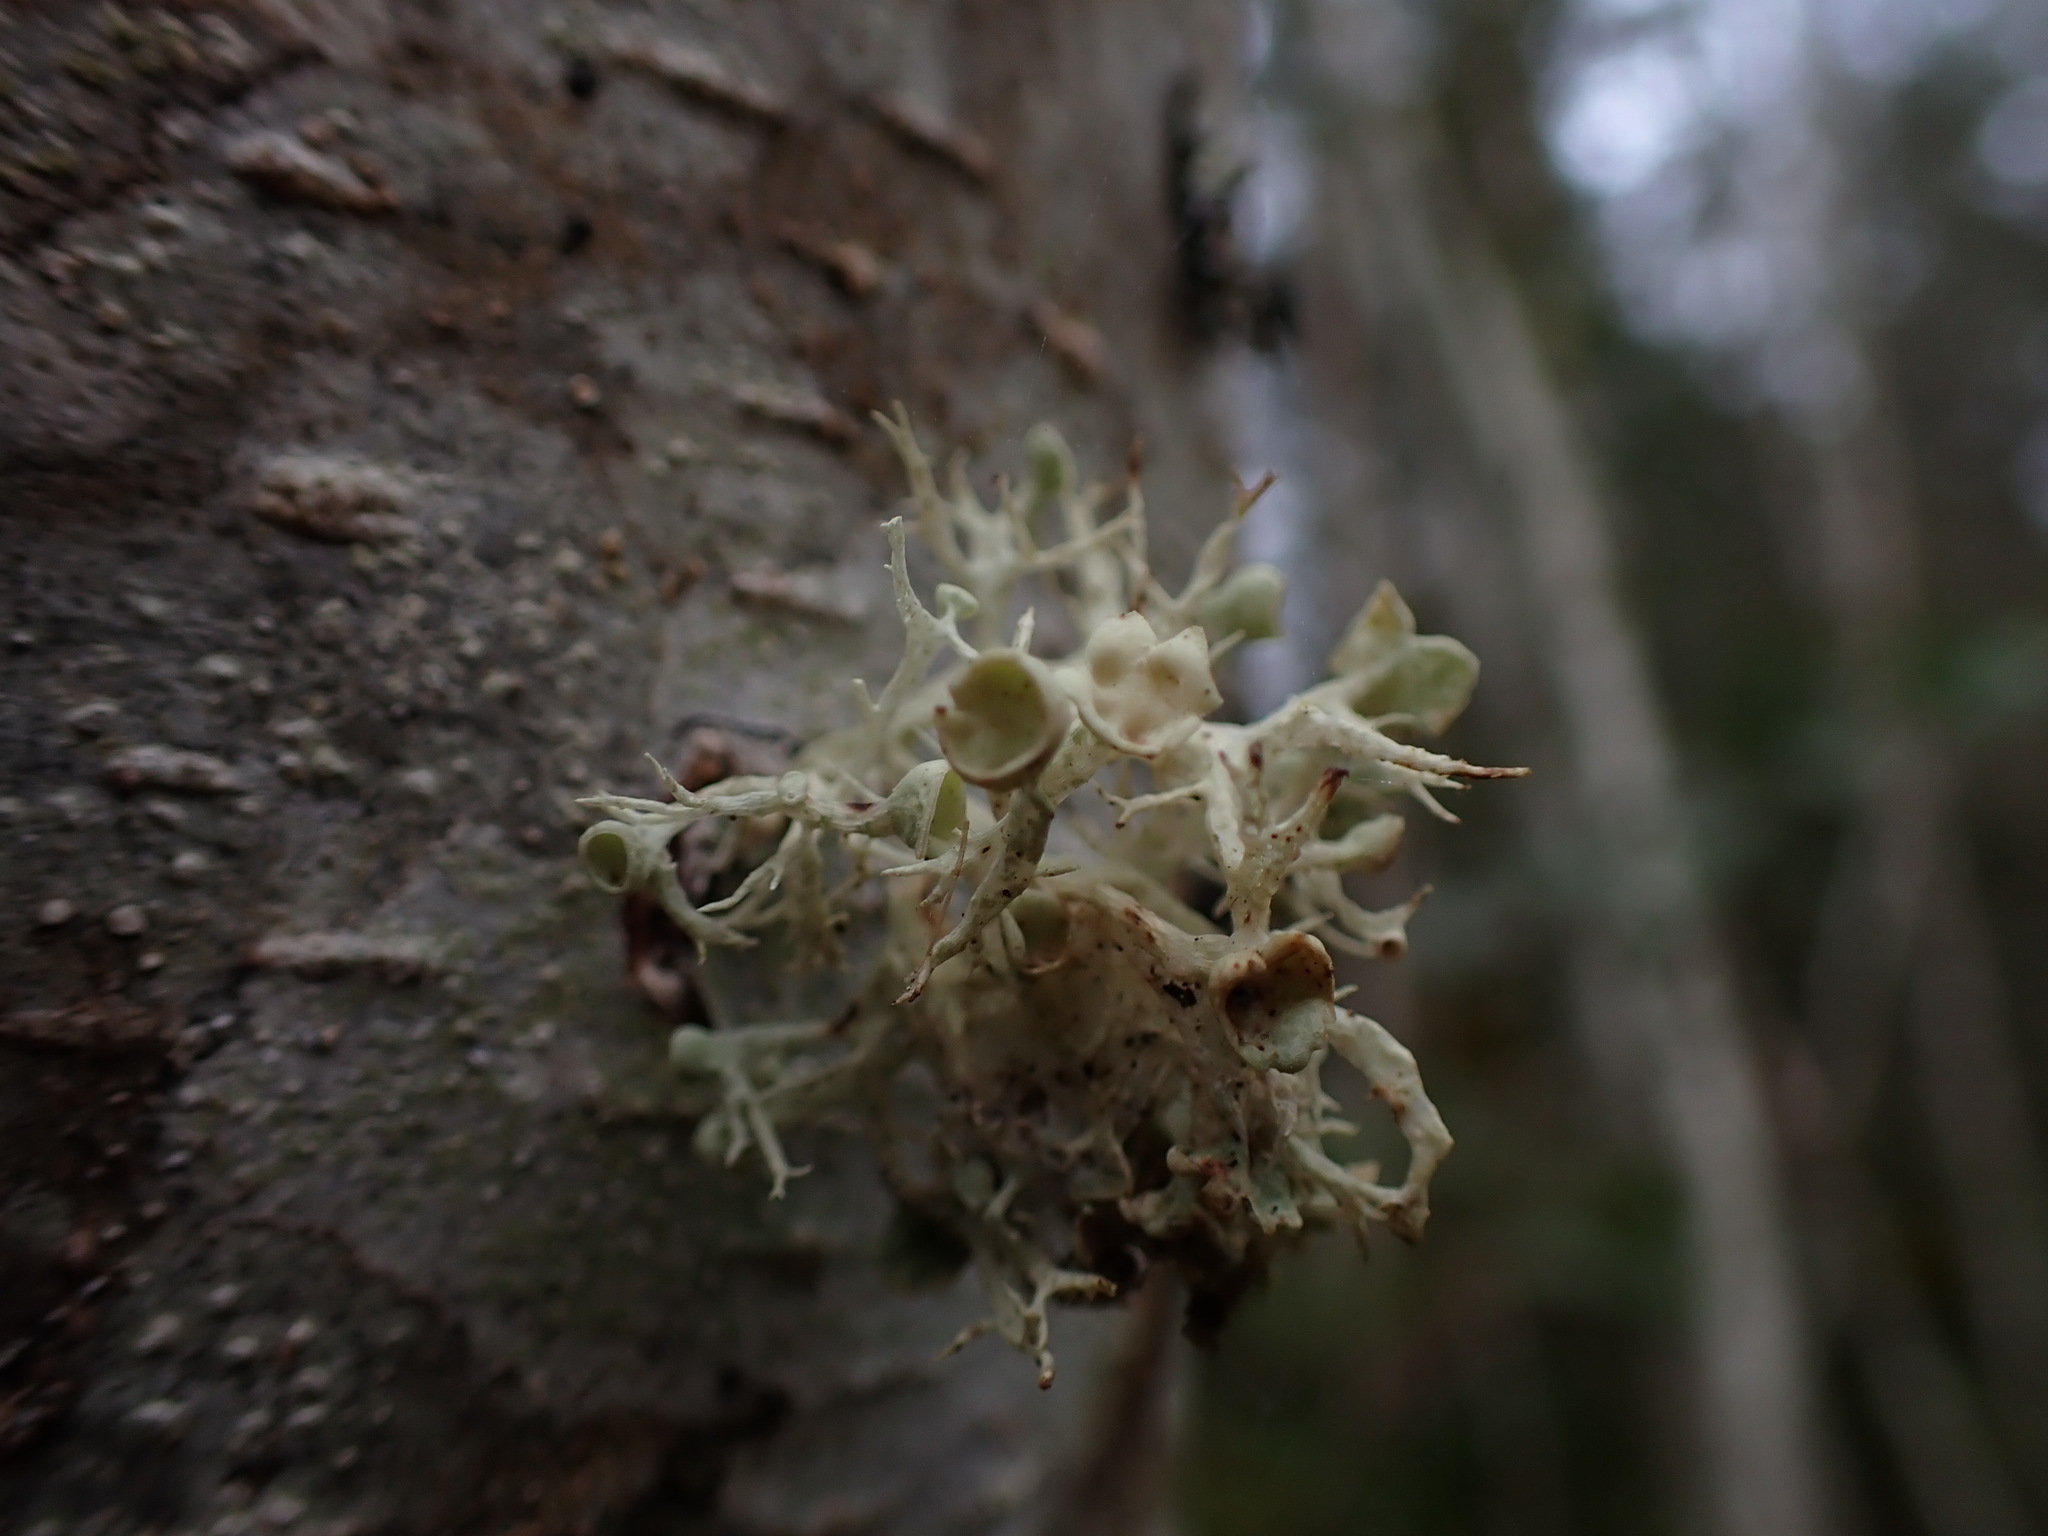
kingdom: Fungi
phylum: Ascomycota
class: Lecanoromycetes
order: Lecanorales
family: Ramalinaceae
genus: Ramalina
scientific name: Ramalina dilacerata
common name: Punctured bushy lichen
